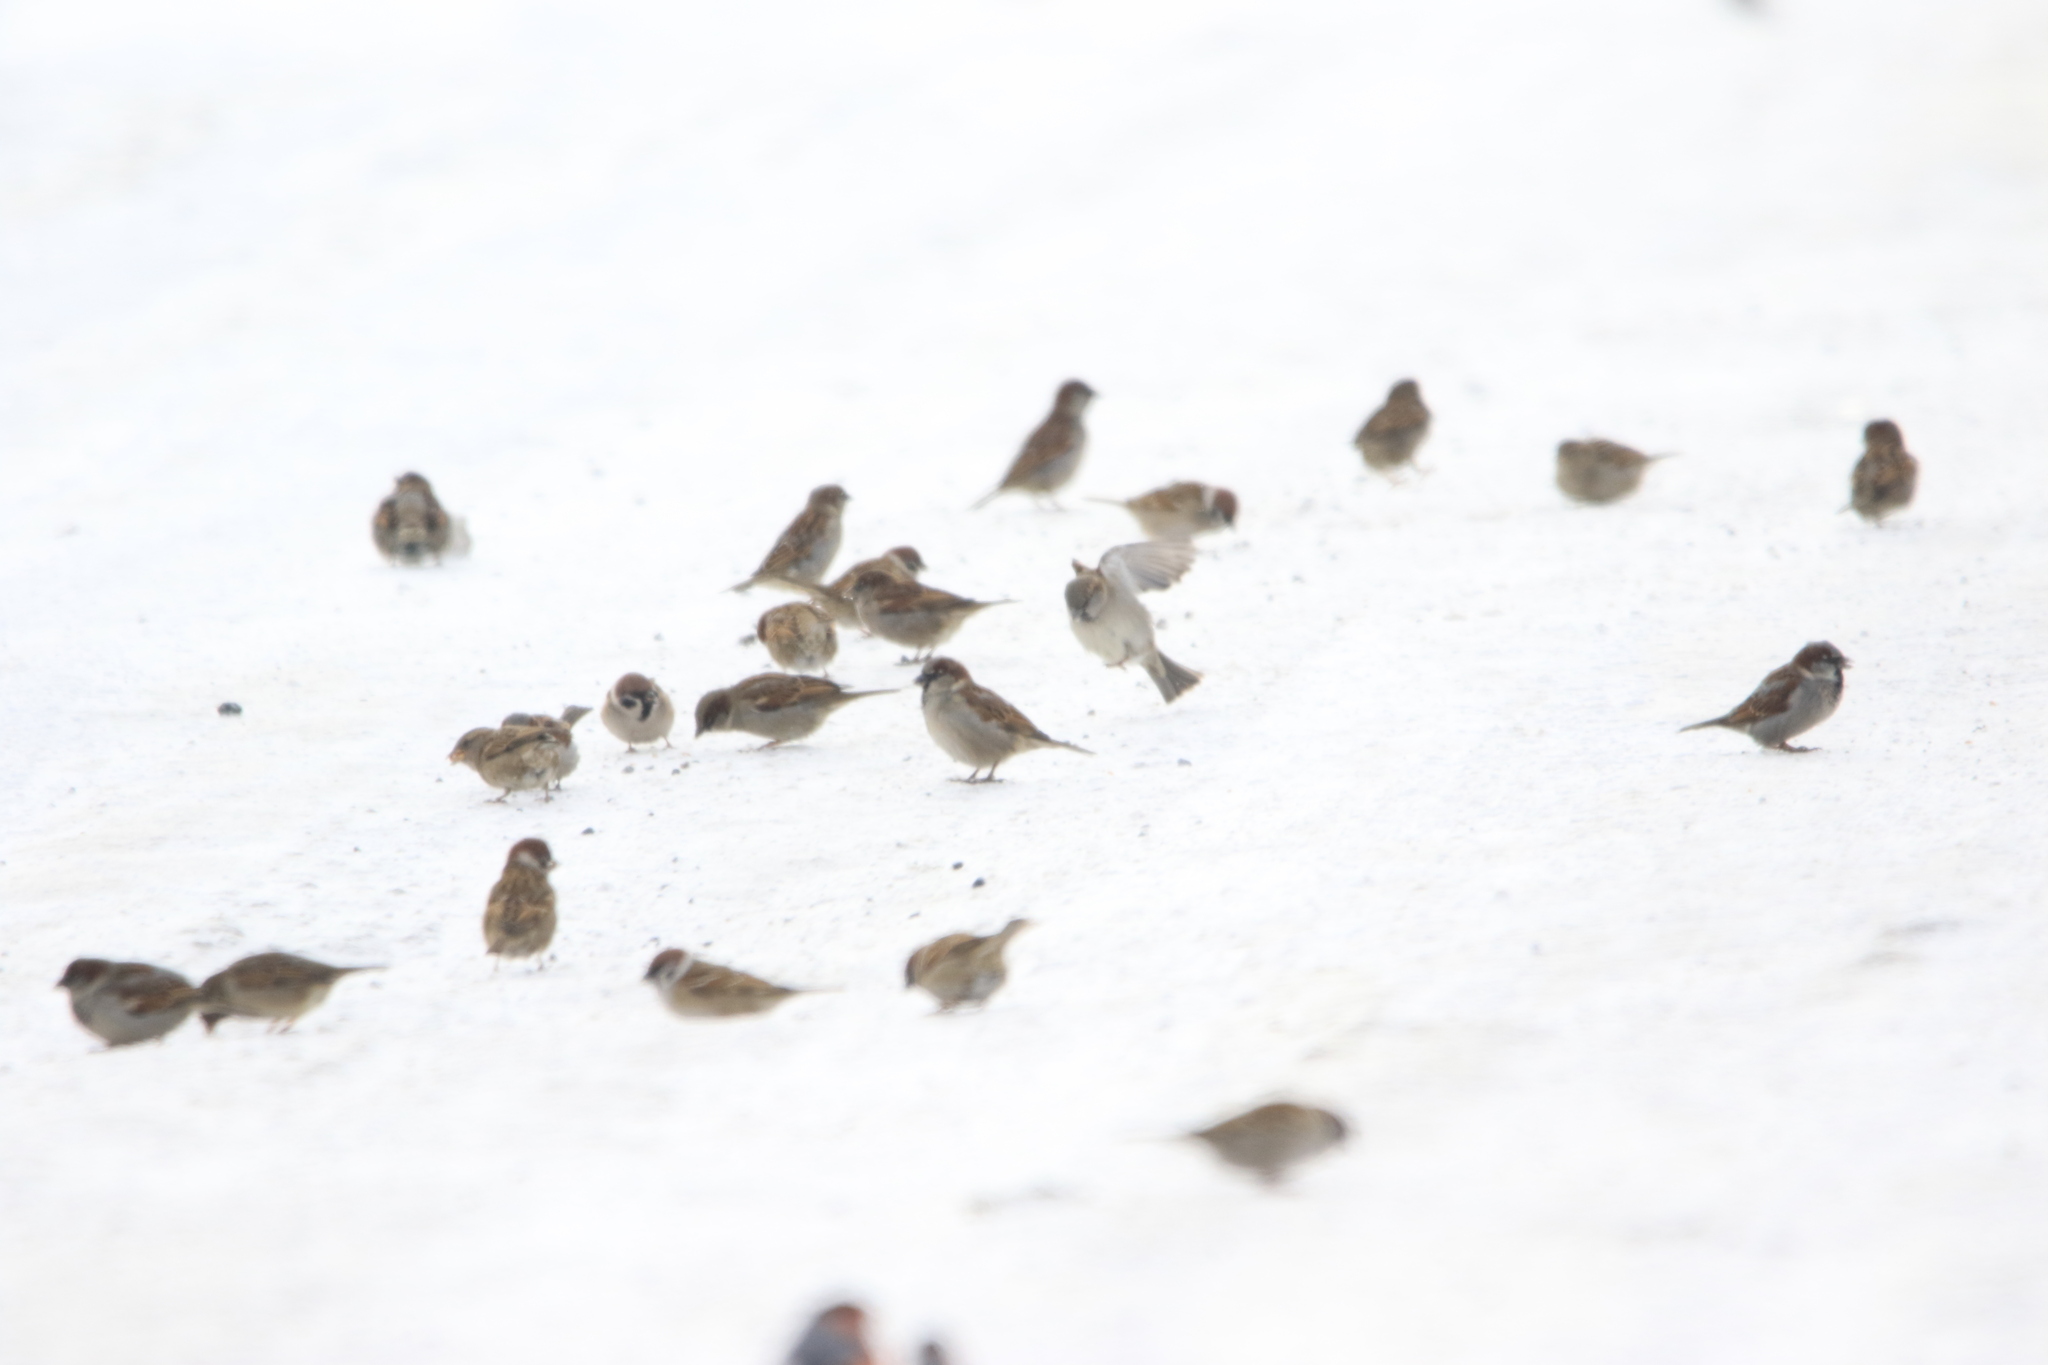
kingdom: Animalia
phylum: Chordata
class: Aves
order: Passeriformes
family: Passeridae
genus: Passer
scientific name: Passer montanus
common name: Eurasian tree sparrow
